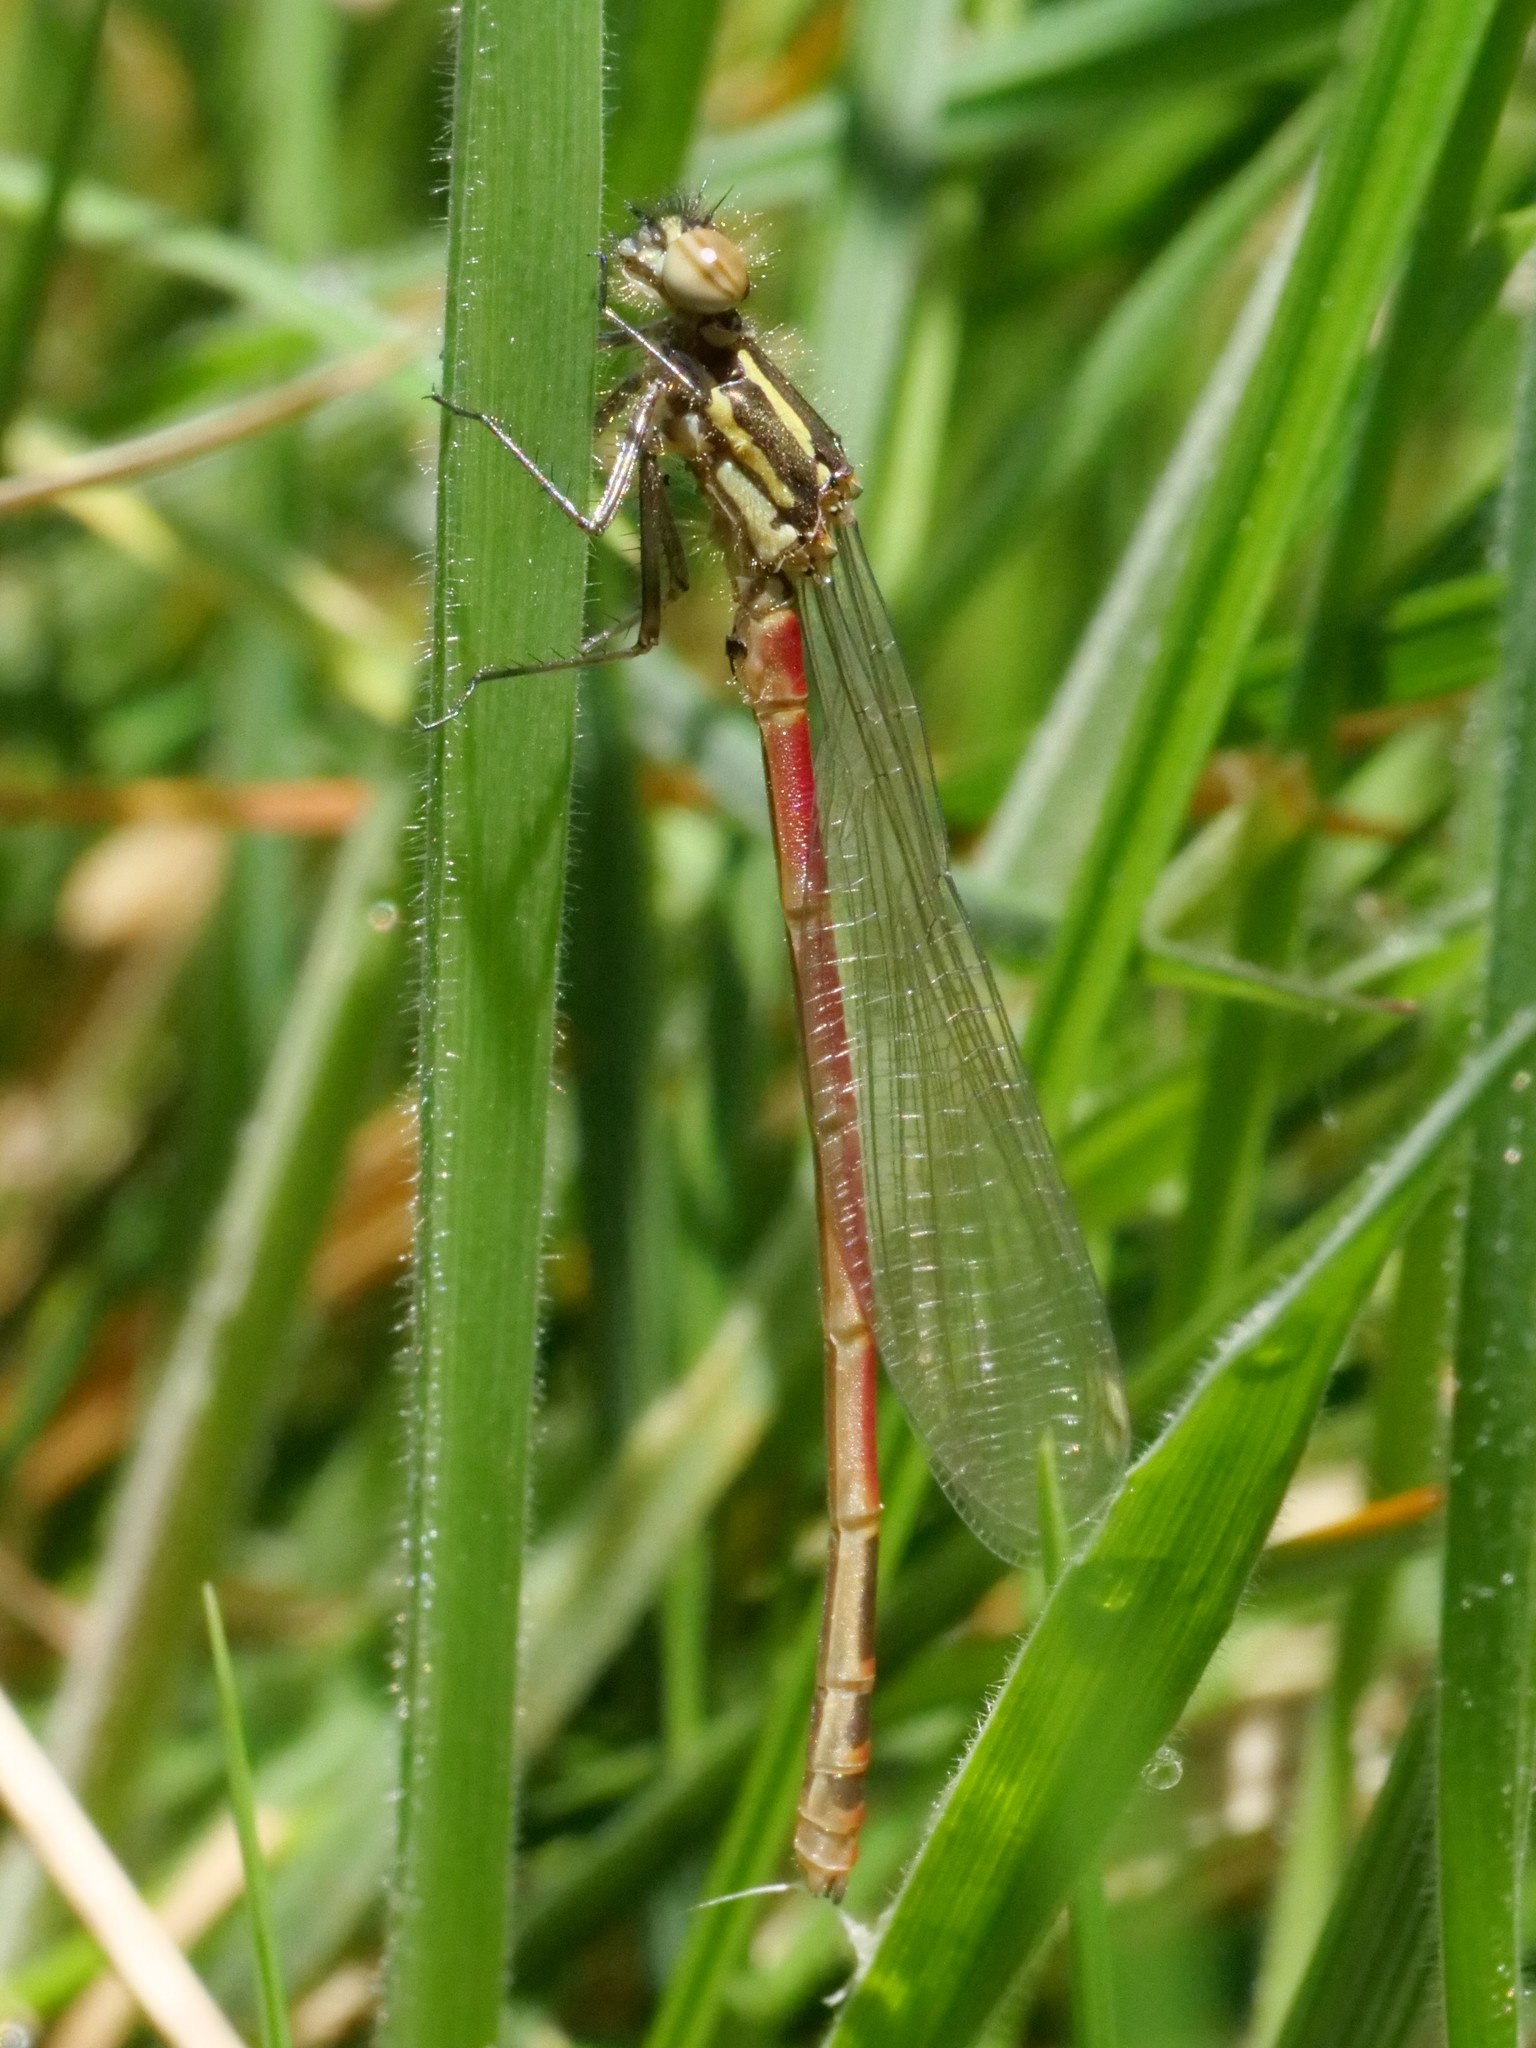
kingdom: Animalia
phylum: Arthropoda
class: Insecta
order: Odonata
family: Coenagrionidae
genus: Pyrrhosoma
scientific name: Pyrrhosoma nymphula
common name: Large red damsel
